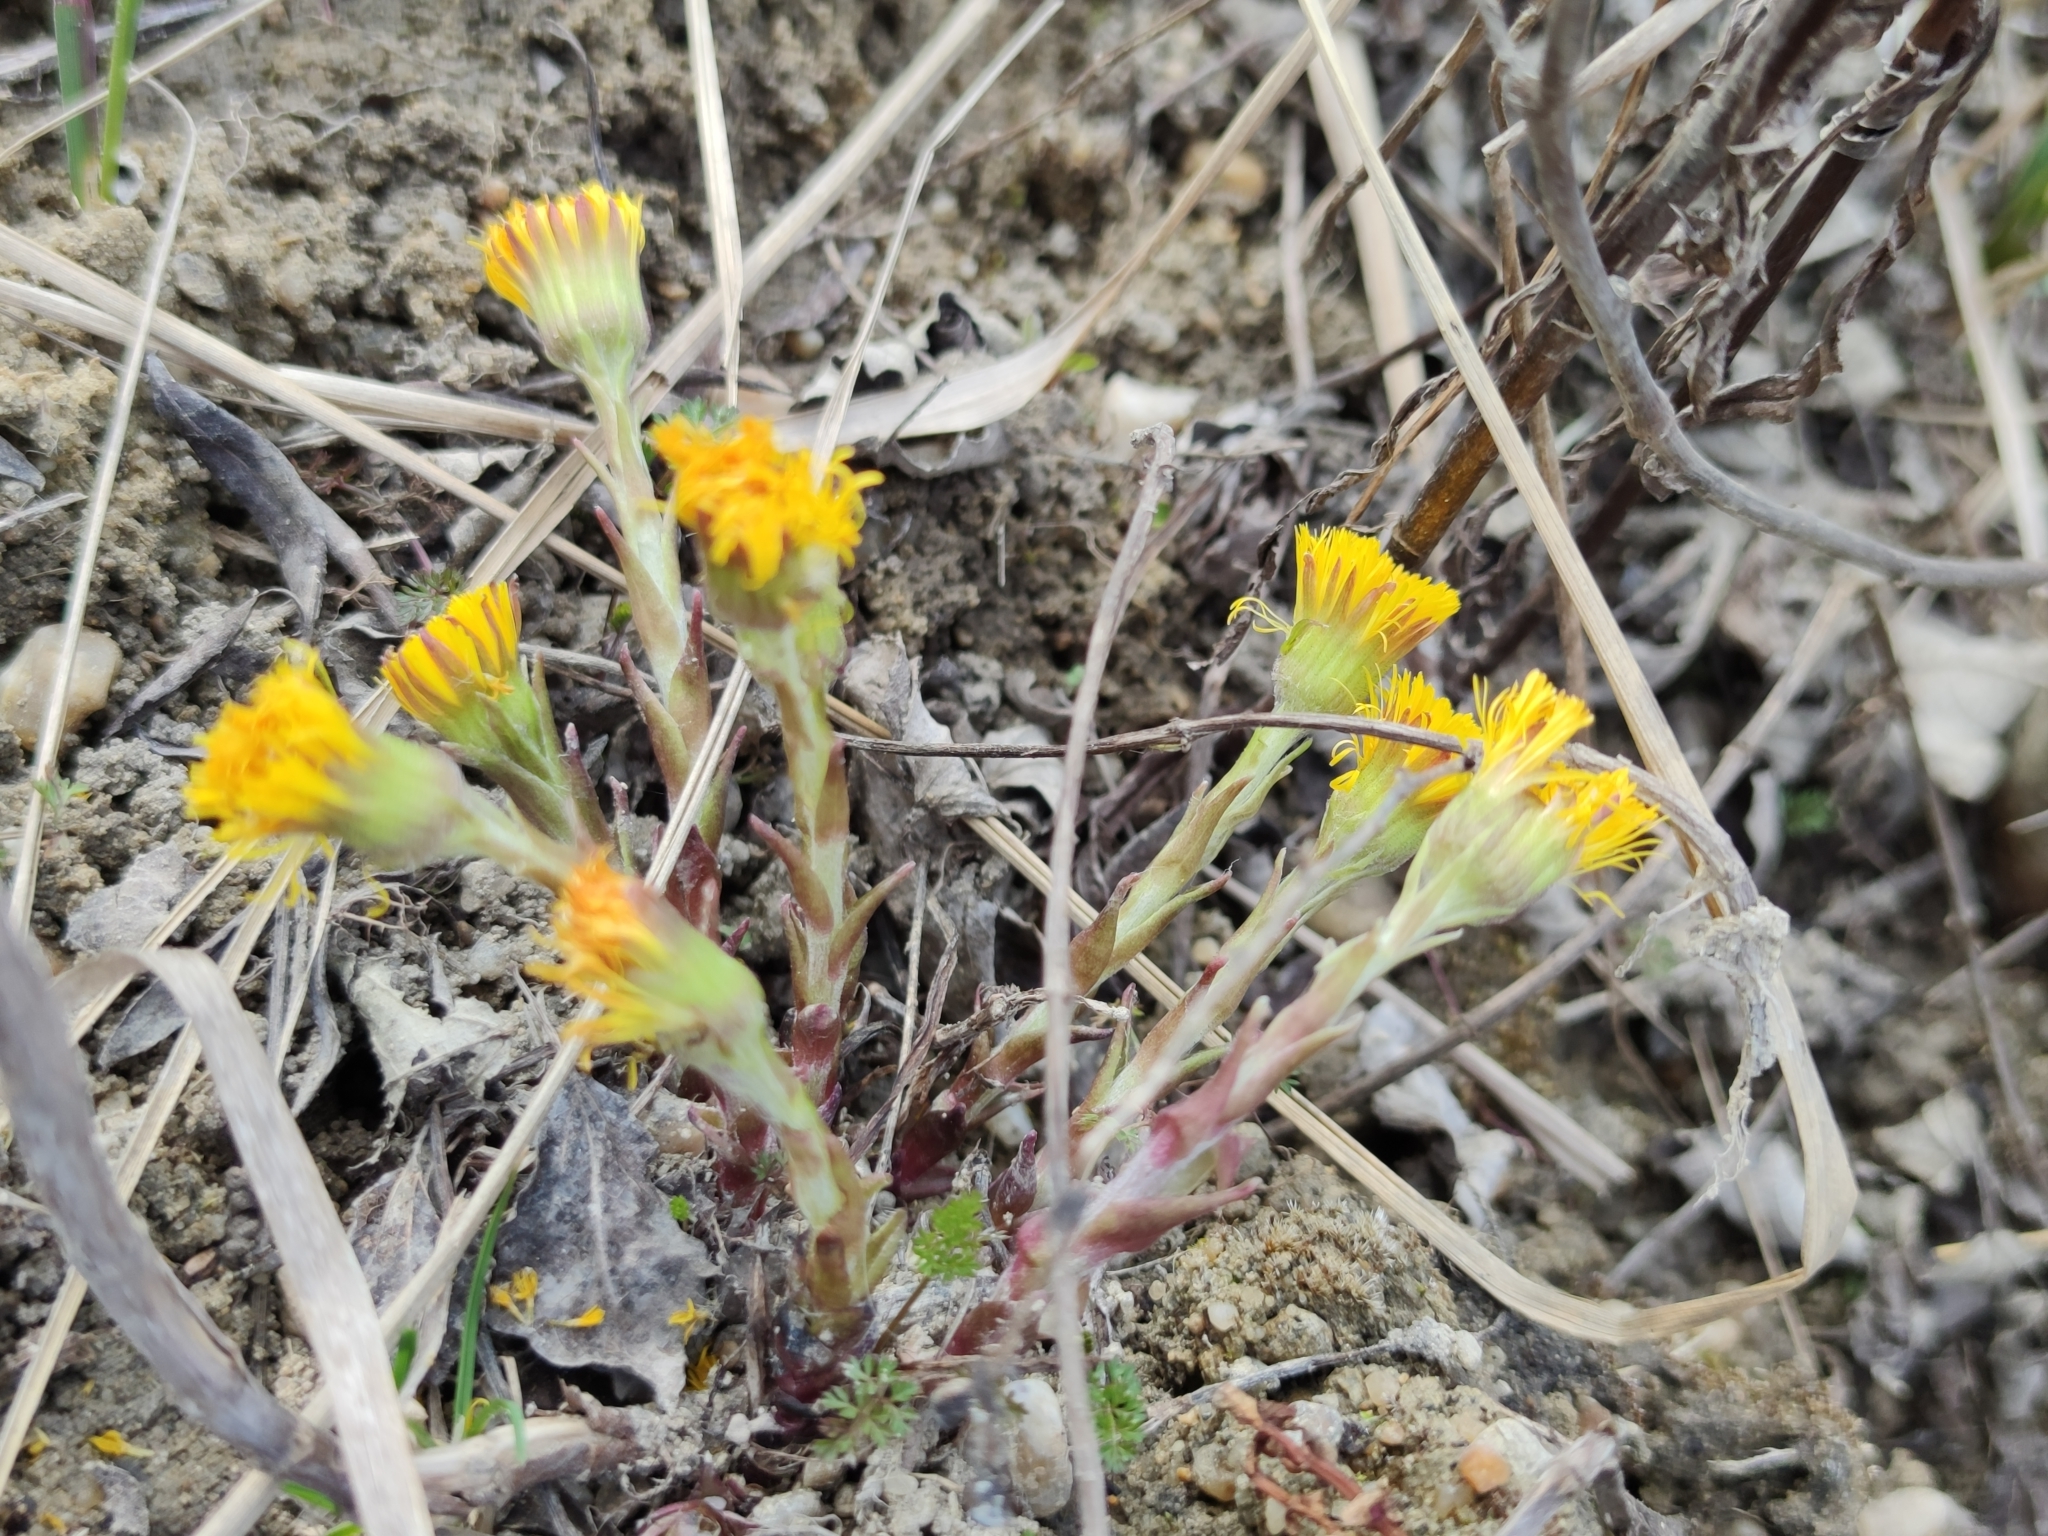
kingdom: Plantae
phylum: Tracheophyta
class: Magnoliopsida
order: Asterales
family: Asteraceae
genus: Tussilago
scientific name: Tussilago farfara
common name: Coltsfoot
